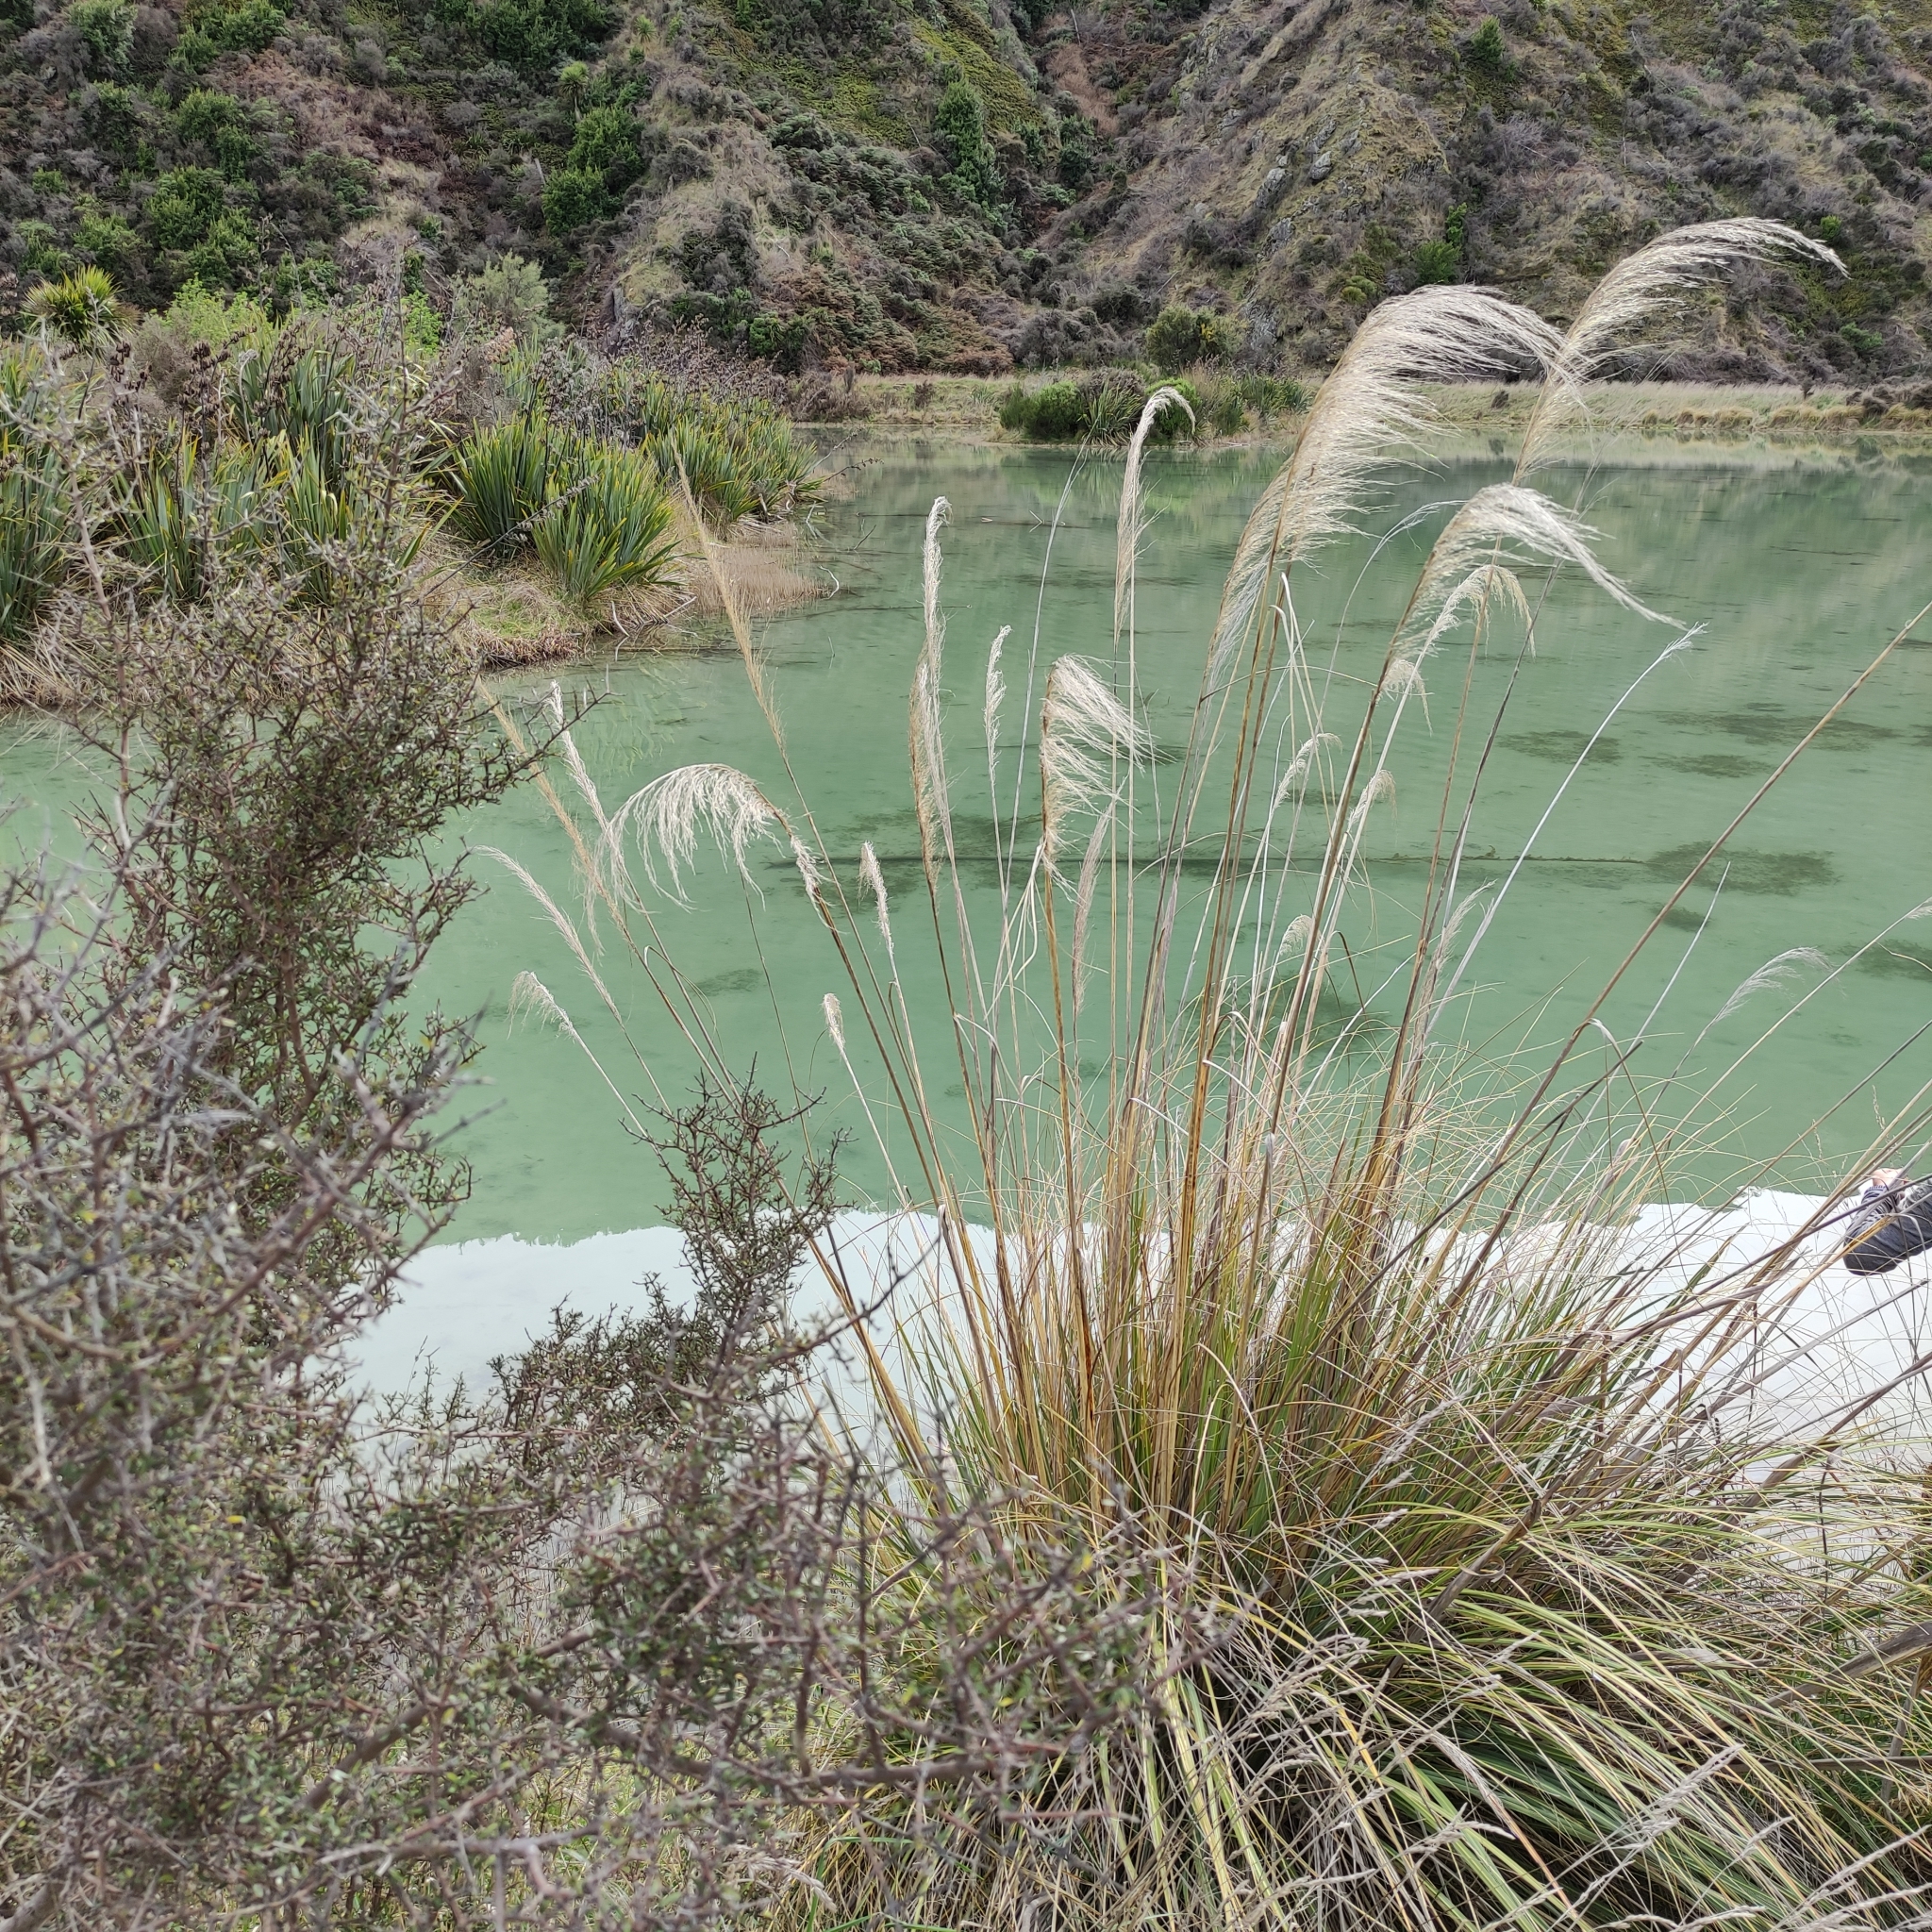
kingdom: Plantae
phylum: Tracheophyta
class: Liliopsida
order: Poales
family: Poaceae
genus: Austroderia
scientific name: Austroderia richardii
